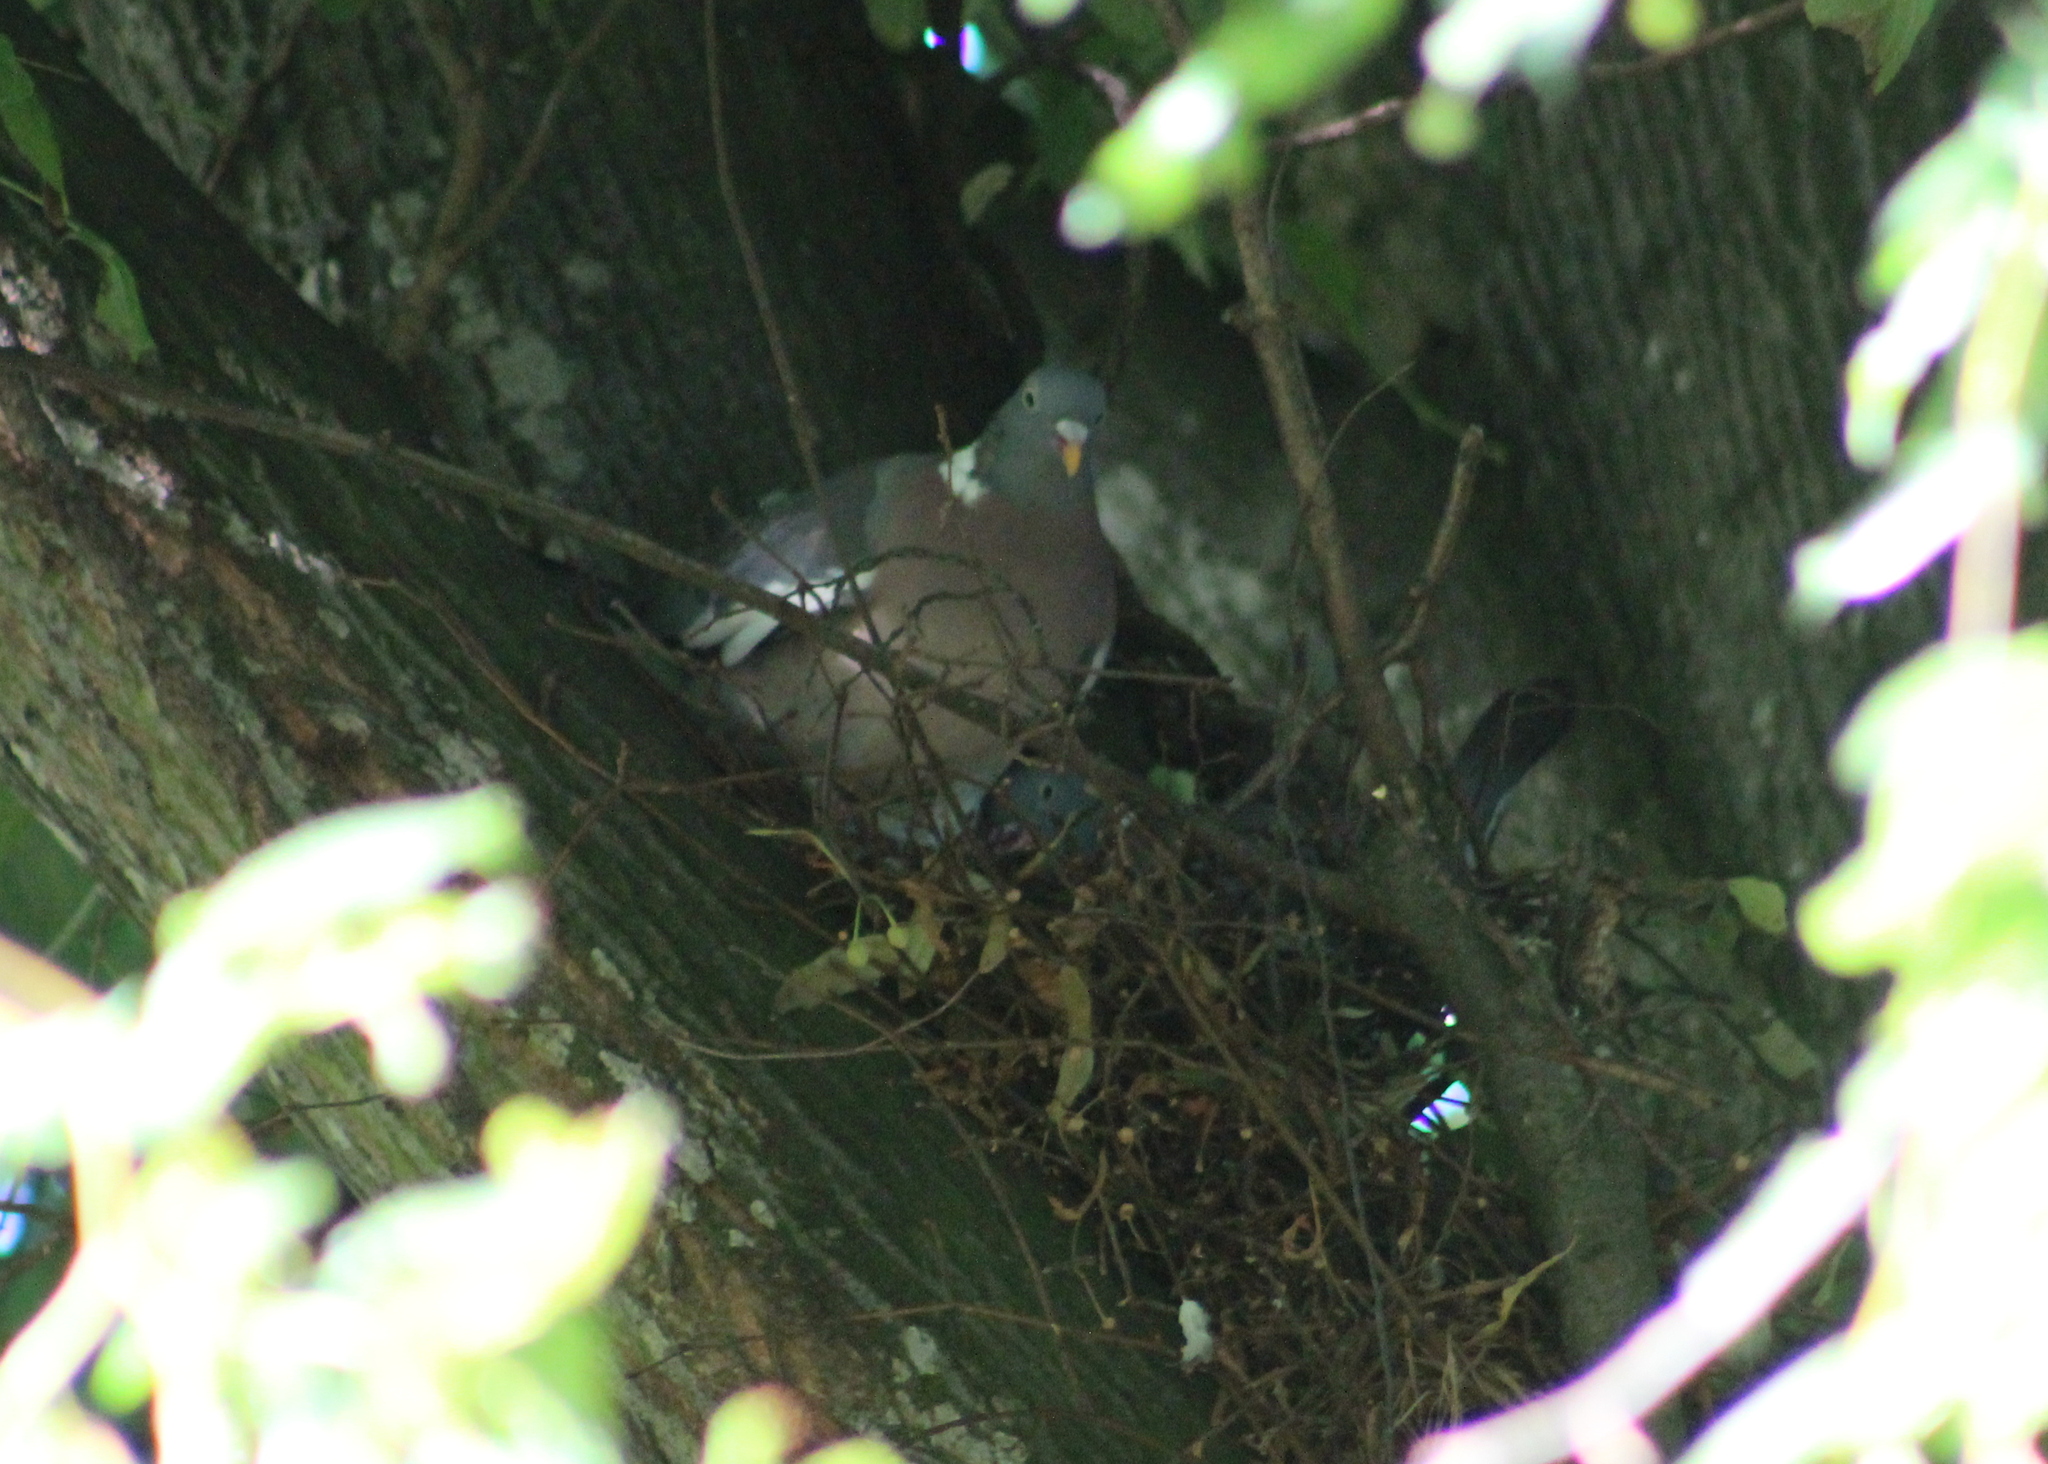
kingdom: Animalia
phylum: Chordata
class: Aves
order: Columbiformes
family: Columbidae
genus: Columba
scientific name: Columba palumbus
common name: Common wood pigeon
